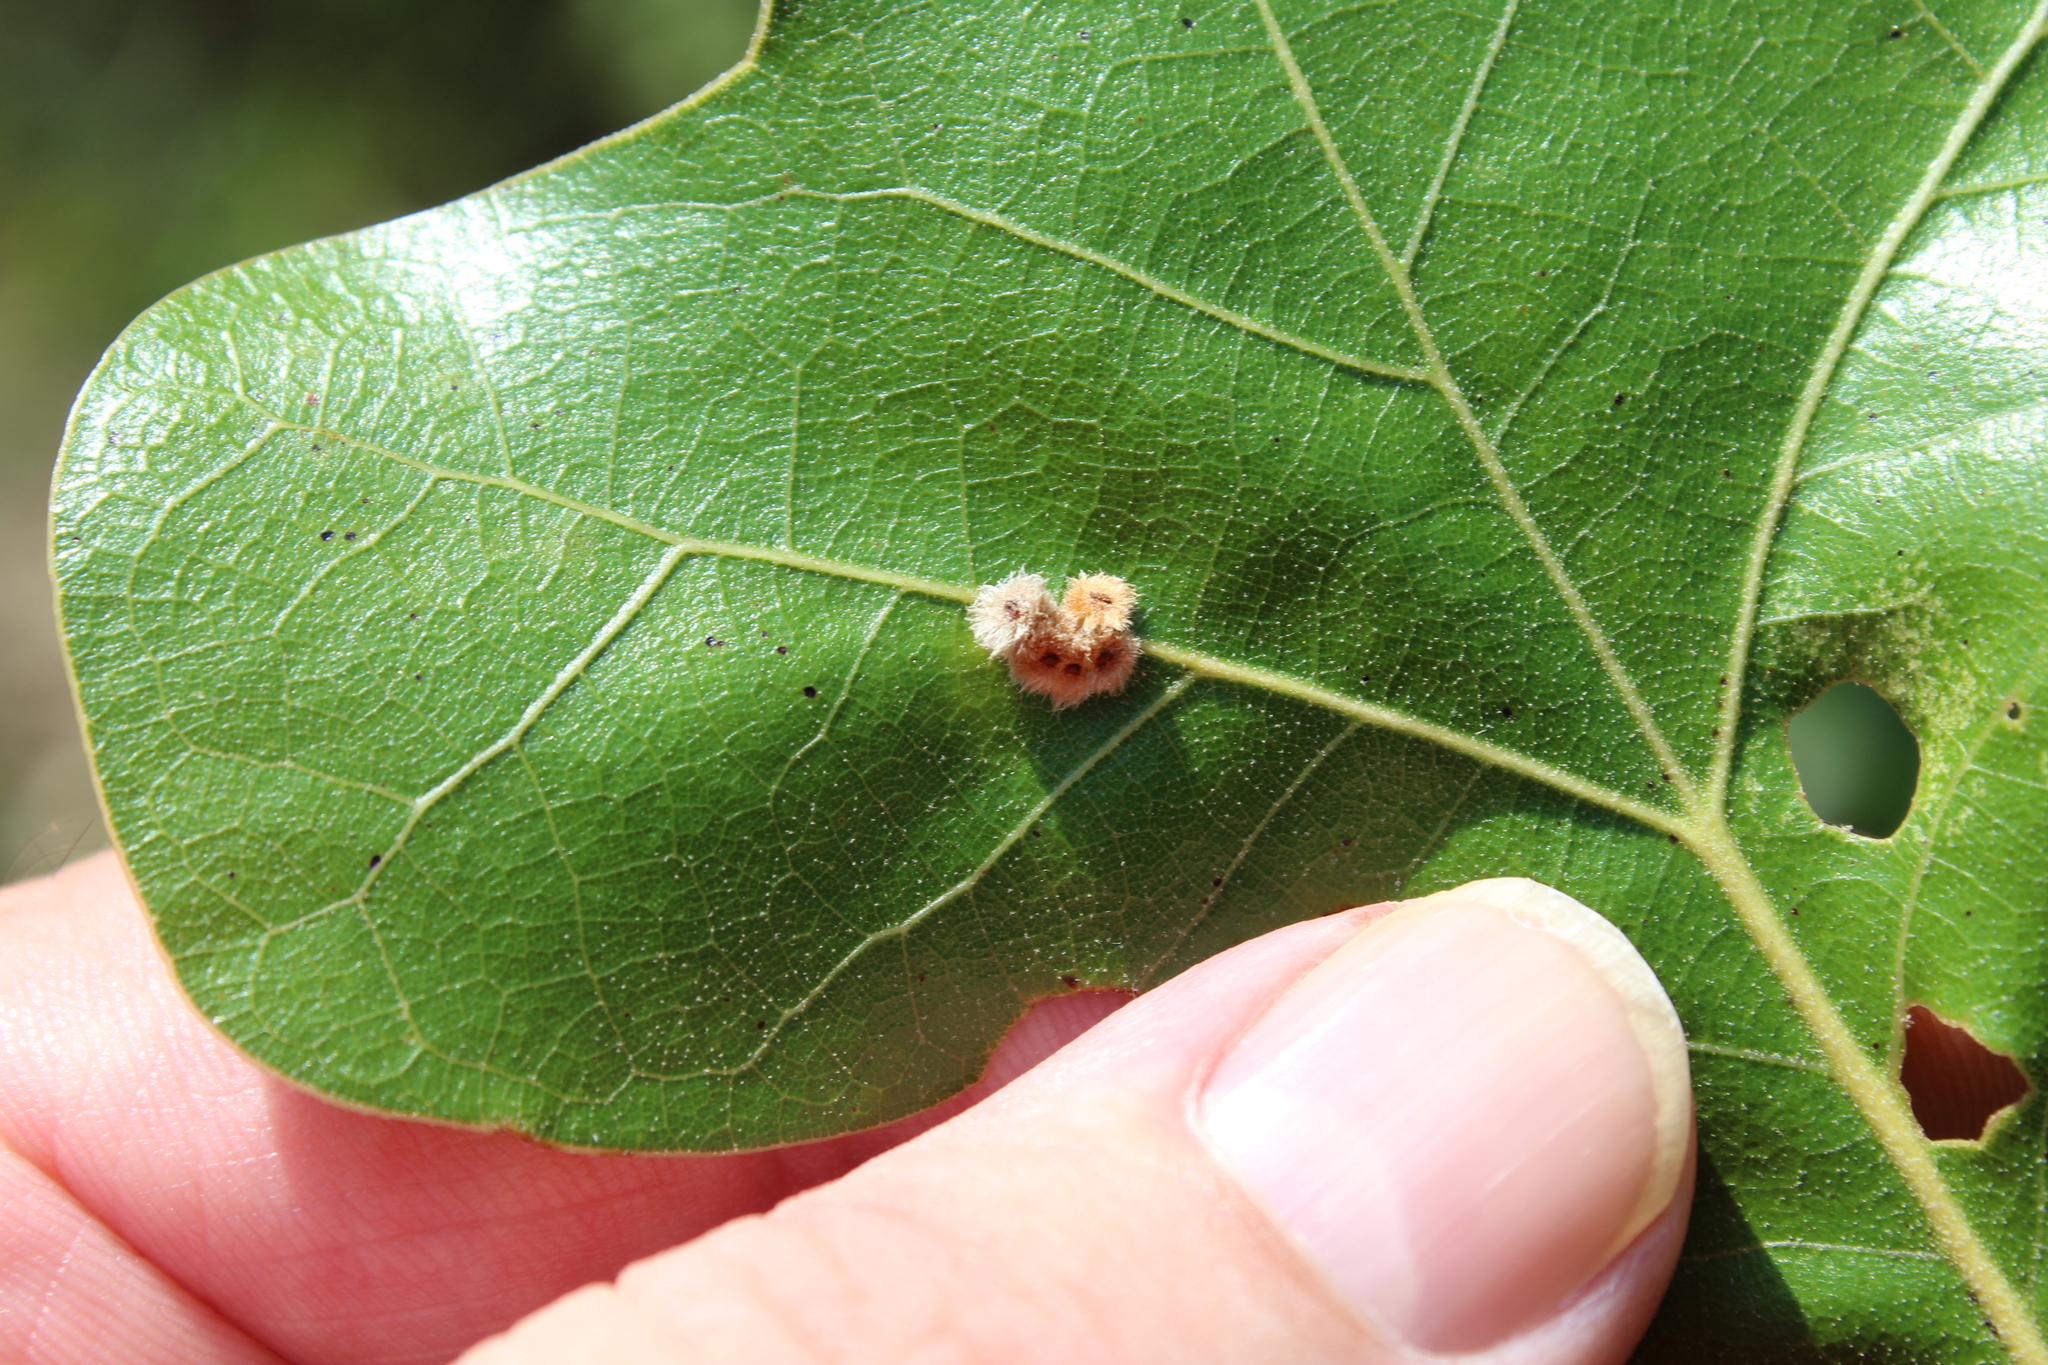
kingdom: Animalia
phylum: Arthropoda
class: Insecta
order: Hymenoptera
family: Cynipidae
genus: Callirhytis
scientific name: Callirhytis
